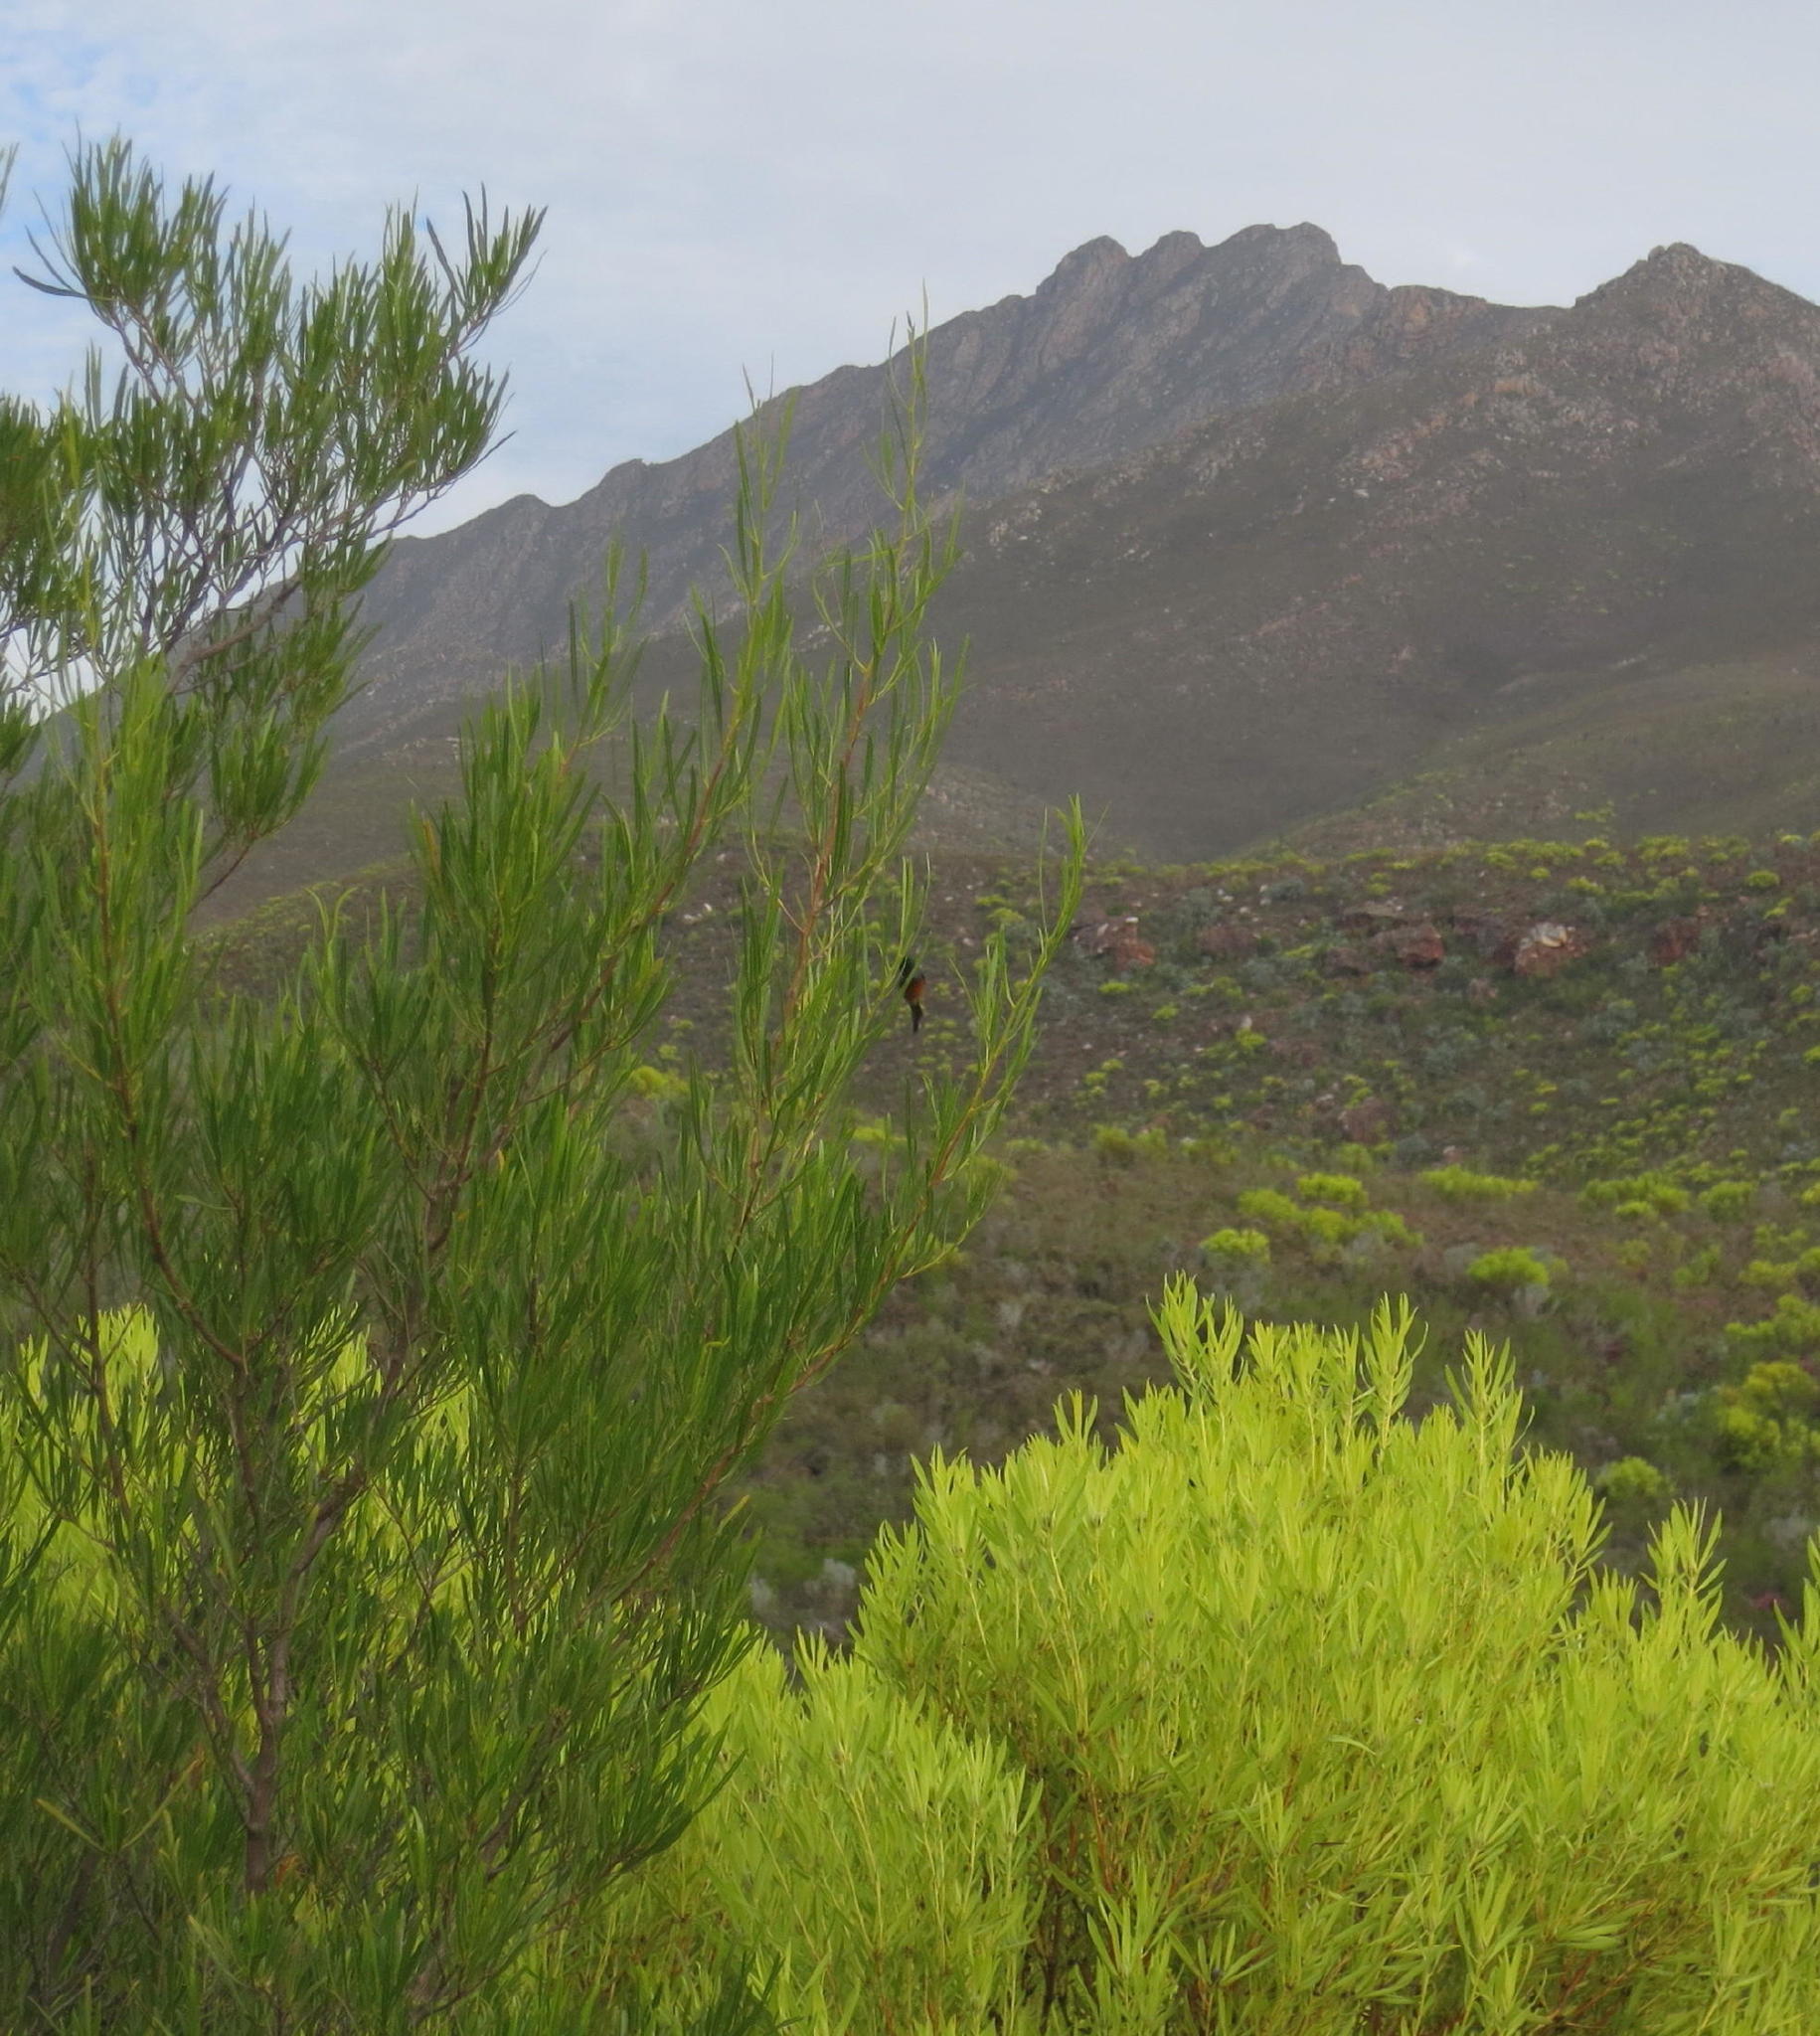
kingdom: Plantae
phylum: Tracheophyta
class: Magnoliopsida
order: Sapindales
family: Sapindaceae
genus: Dodonaea
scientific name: Dodonaea viscosa
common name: Hopbush
